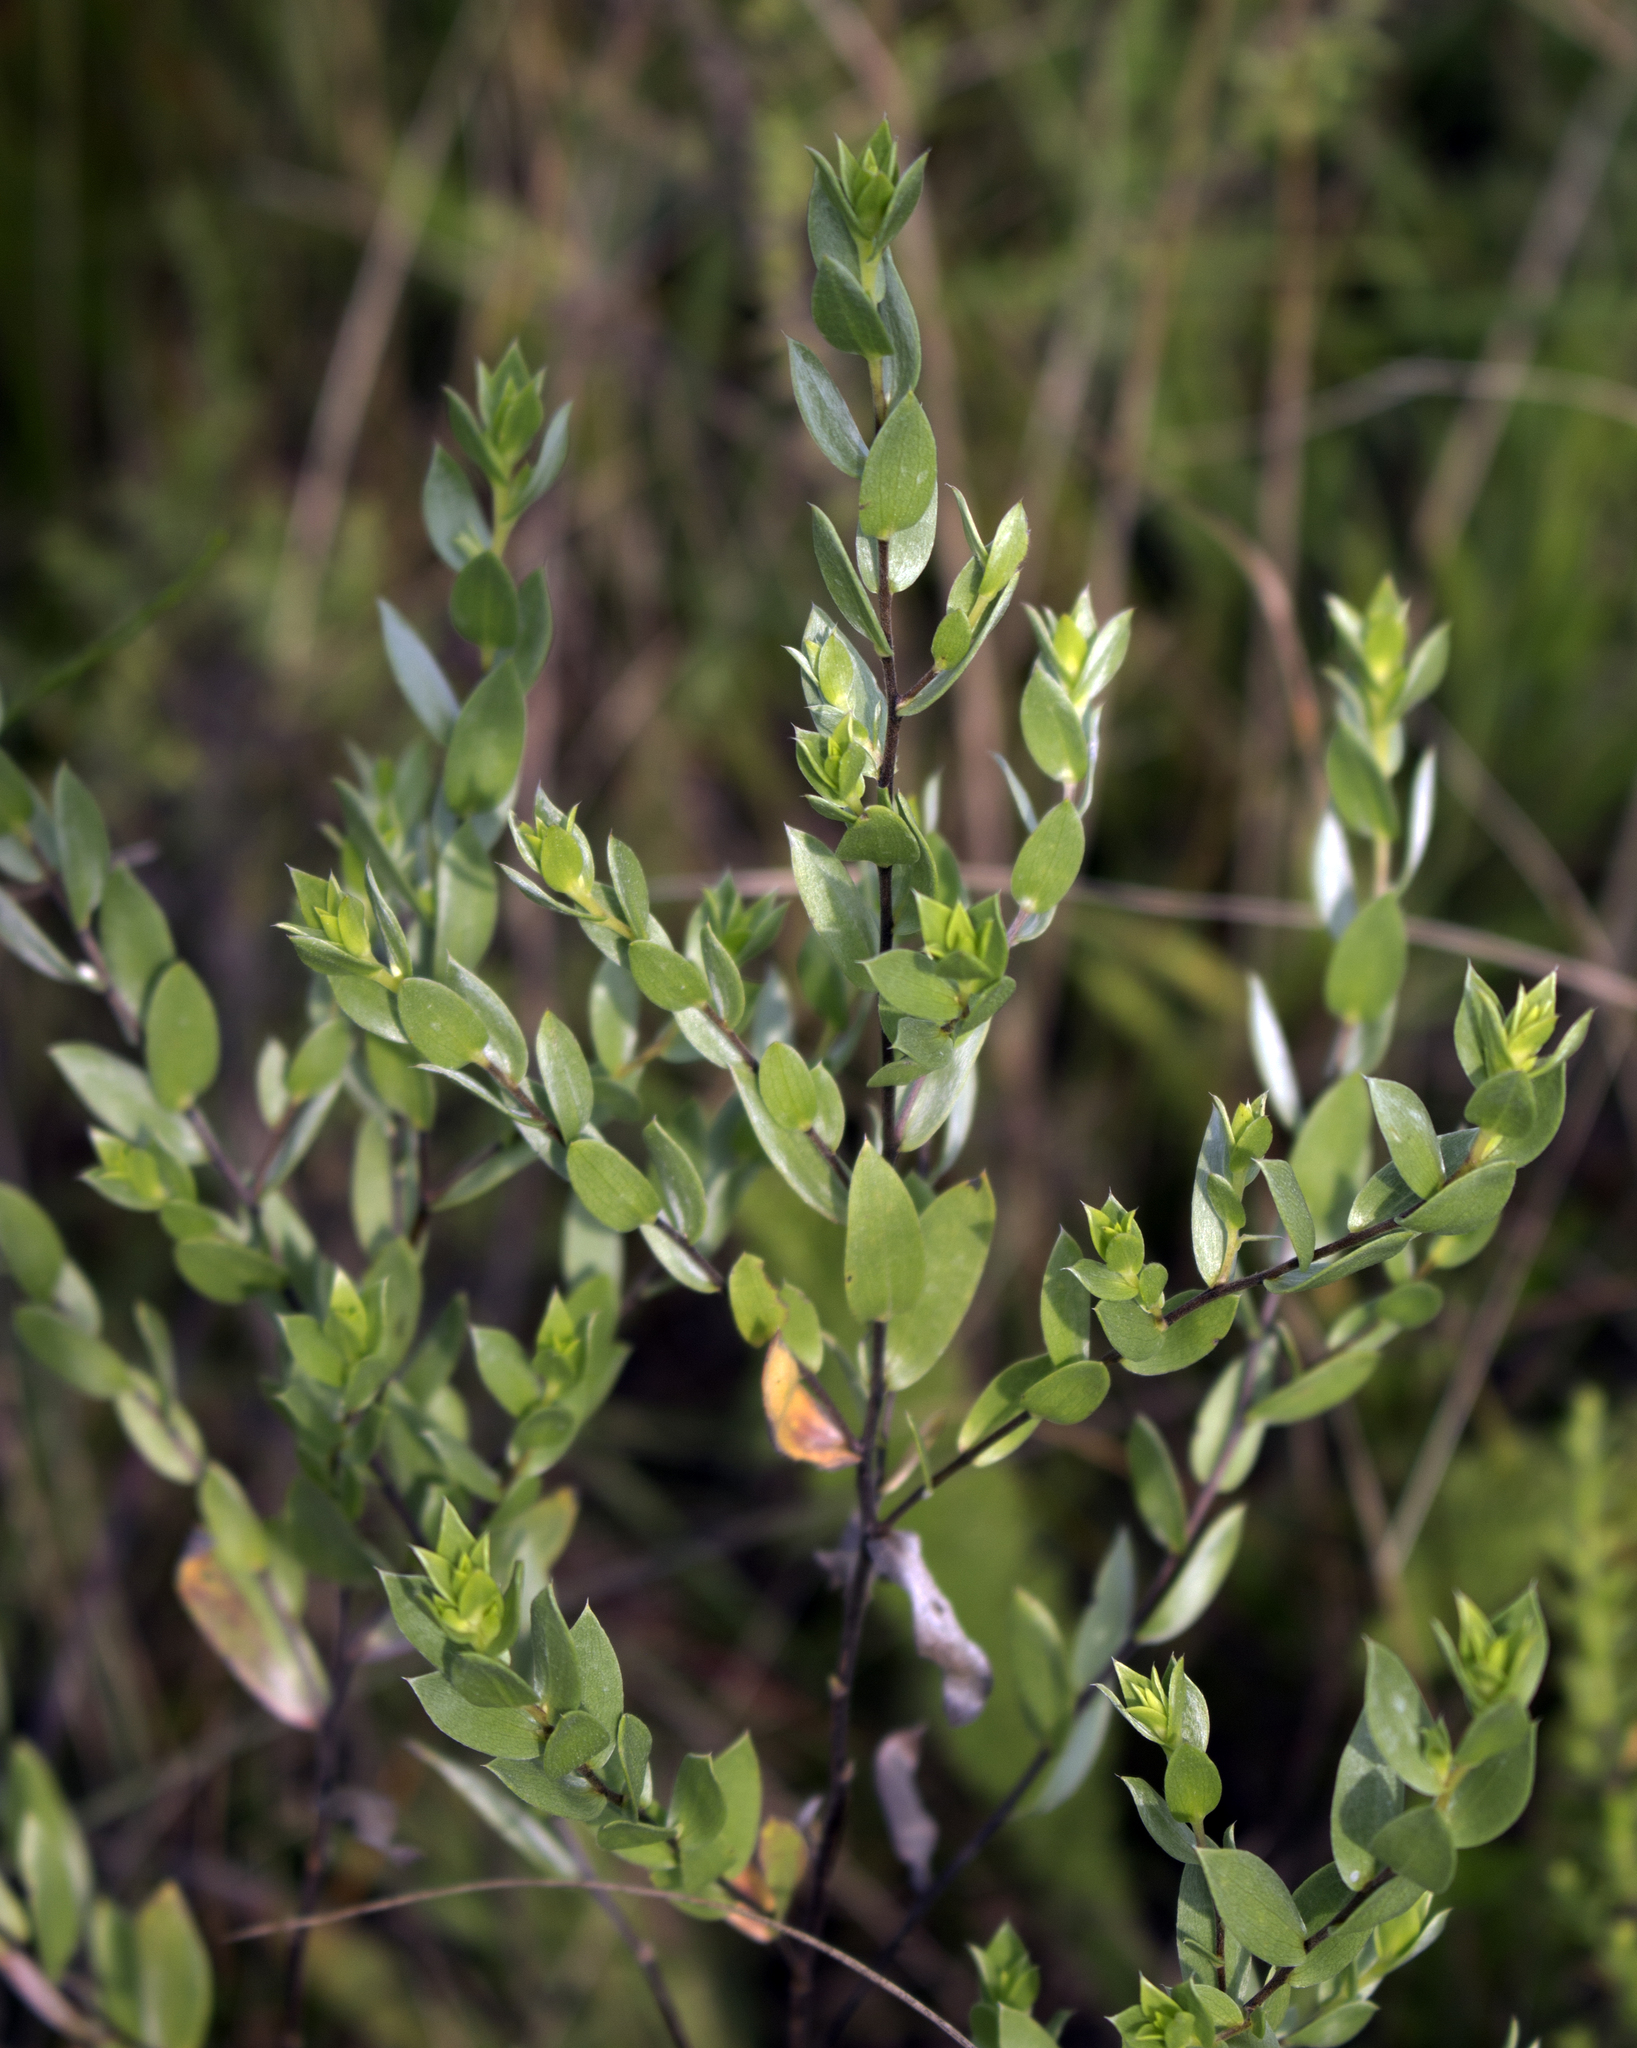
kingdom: Plantae
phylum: Tracheophyta
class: Magnoliopsida
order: Asterales
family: Asteraceae
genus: Symphyotrichum
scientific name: Symphyotrichum sericeum
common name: Silky aster
